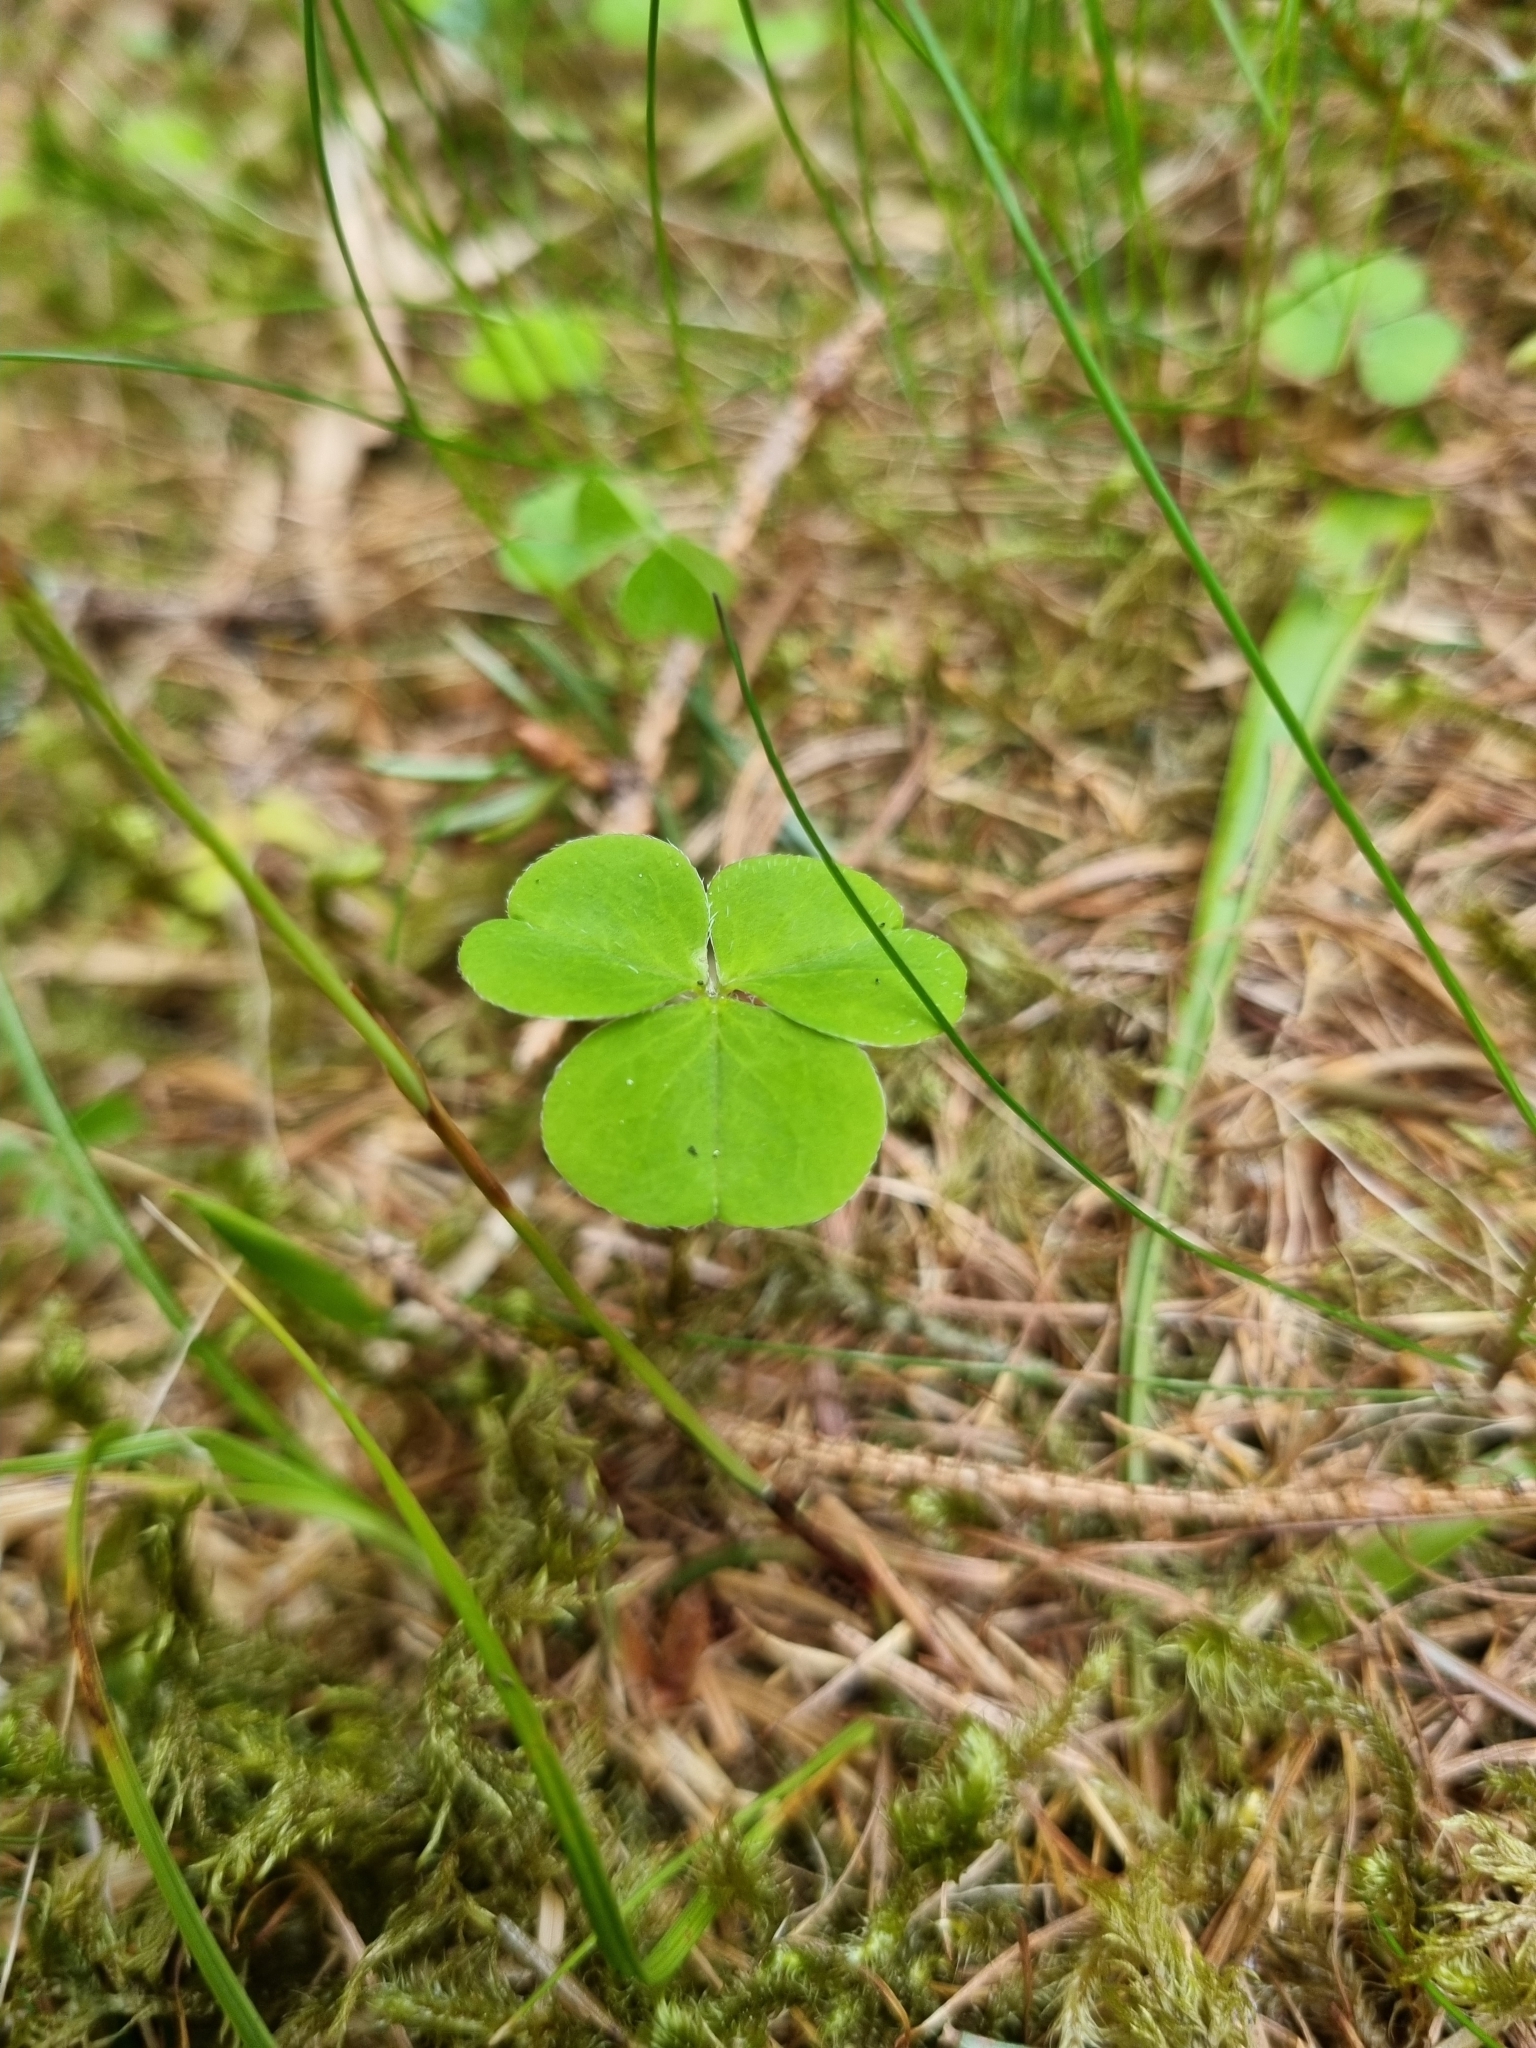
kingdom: Plantae
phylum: Tracheophyta
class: Magnoliopsida
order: Oxalidales
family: Oxalidaceae
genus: Oxalis
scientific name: Oxalis acetosella
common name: Wood-sorrel
